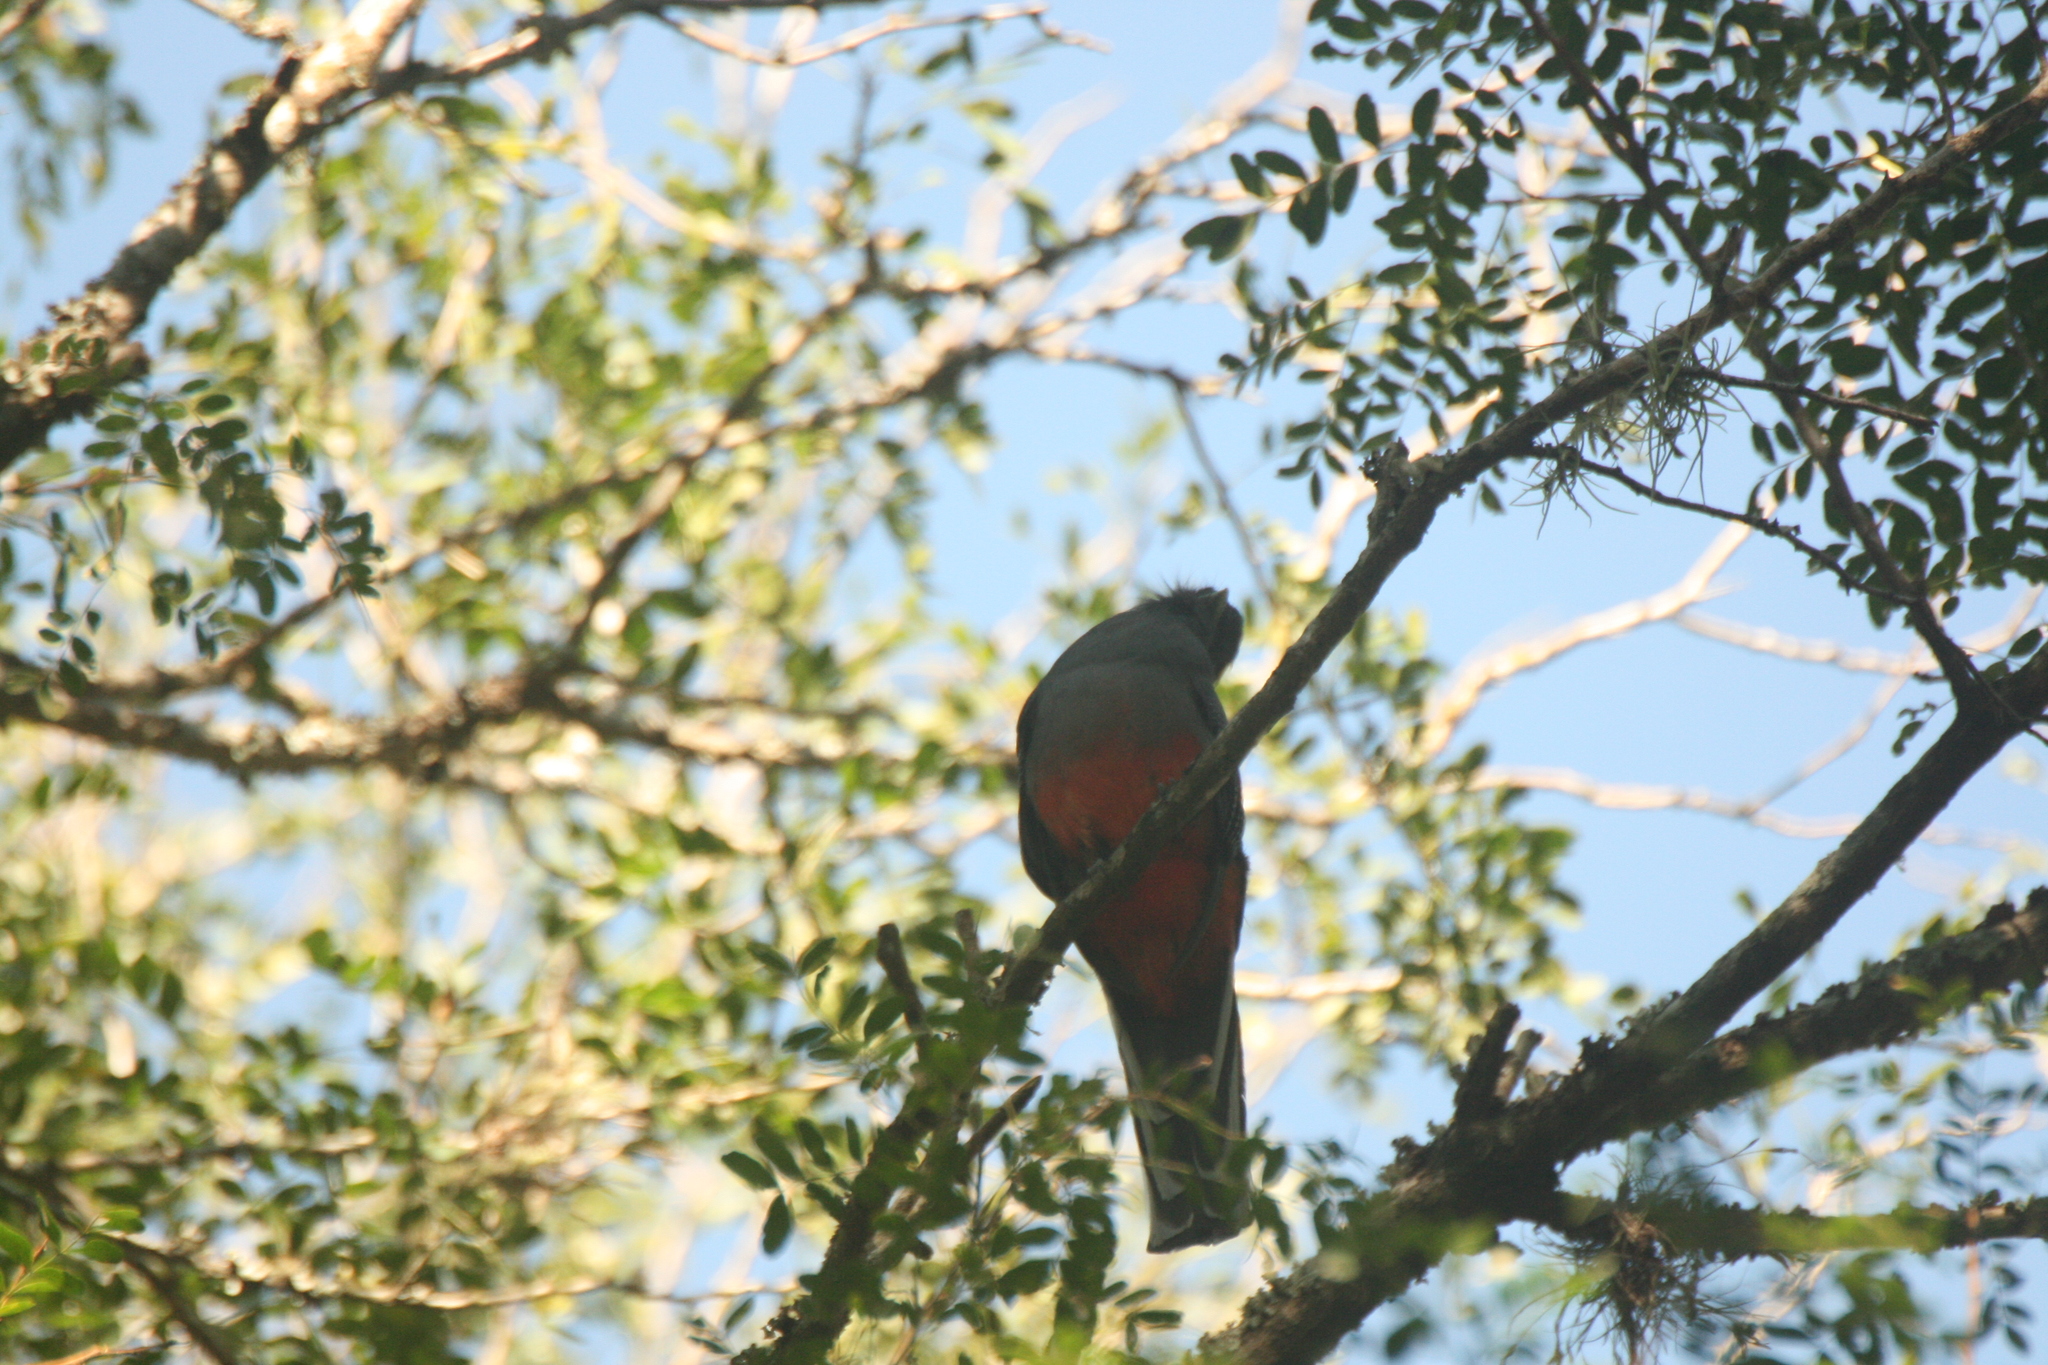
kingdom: Animalia
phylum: Chordata
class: Aves
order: Trogoniformes
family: Trogonidae
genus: Trogon
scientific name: Trogon surrucura
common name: Surucua trogon
